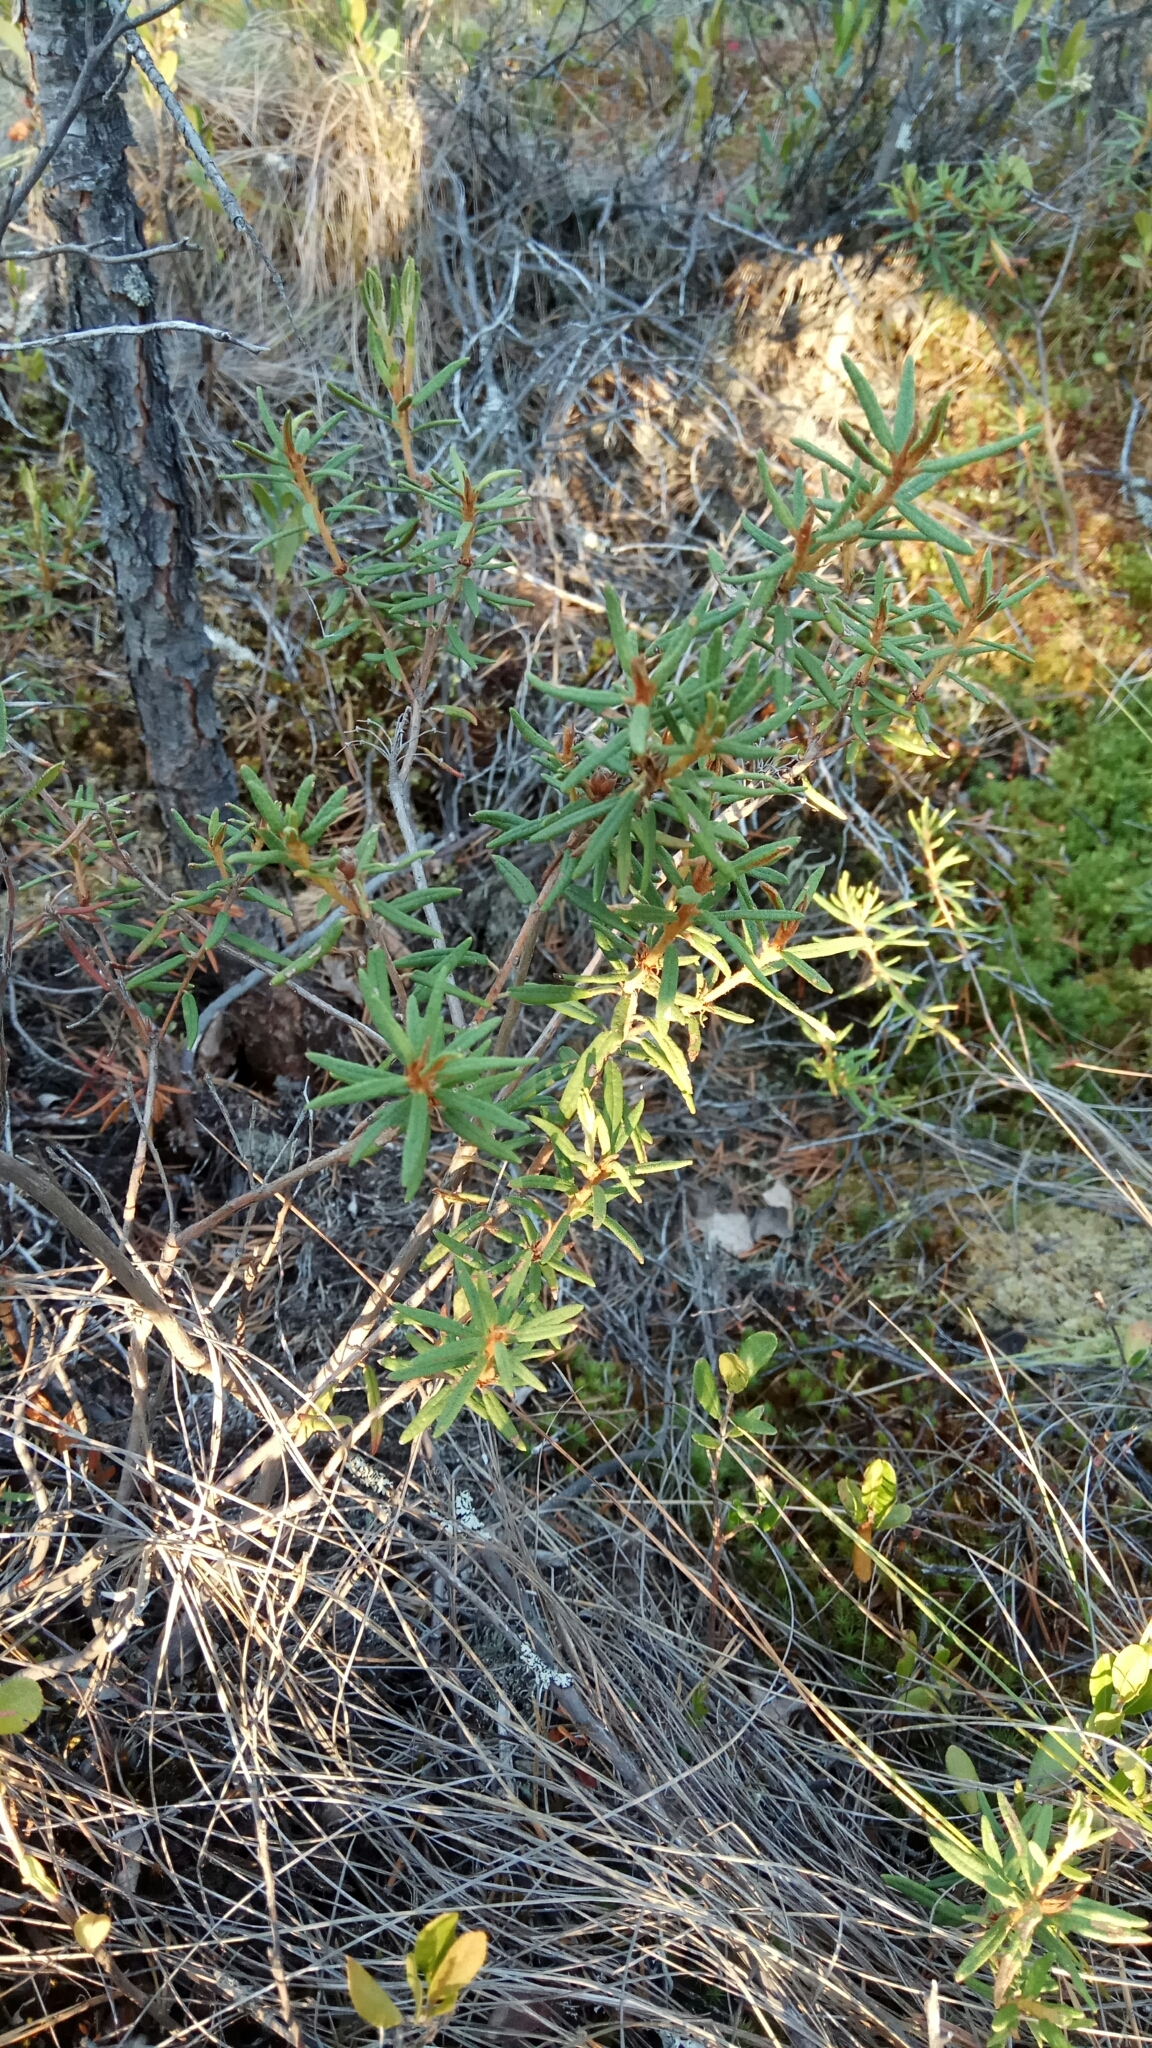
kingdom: Plantae
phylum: Tracheophyta
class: Magnoliopsida
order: Ericales
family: Ericaceae
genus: Rhododendron
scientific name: Rhododendron tomentosum
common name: Marsh labrador tea
